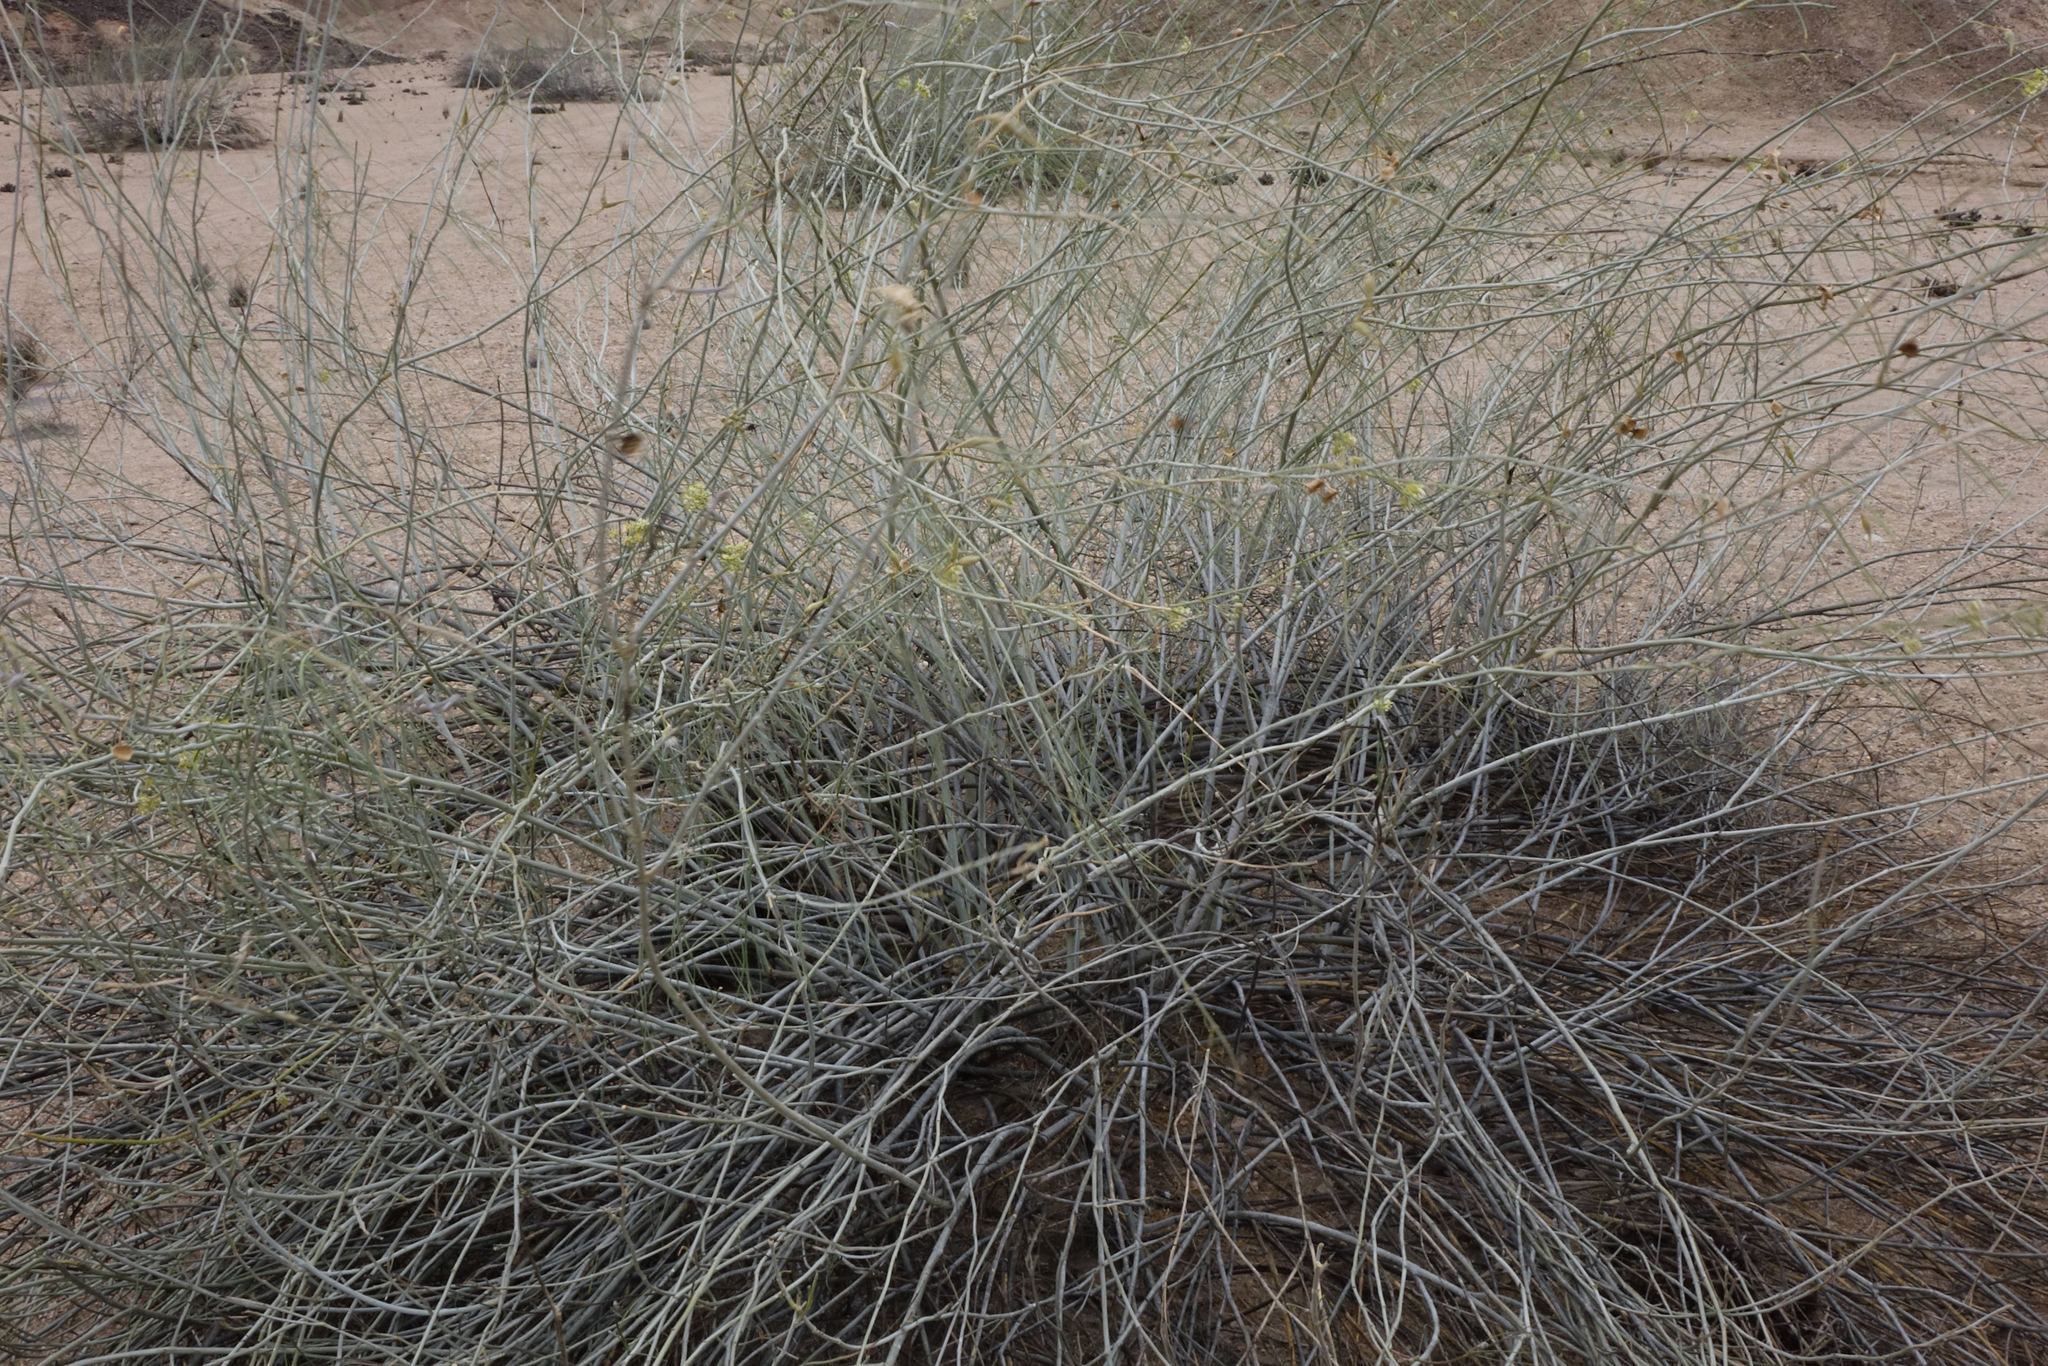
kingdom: Plantae
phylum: Tracheophyta
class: Magnoliopsida
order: Gentianales
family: Apocynaceae
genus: Gomphocarpus
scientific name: Gomphocarpus filiformis
